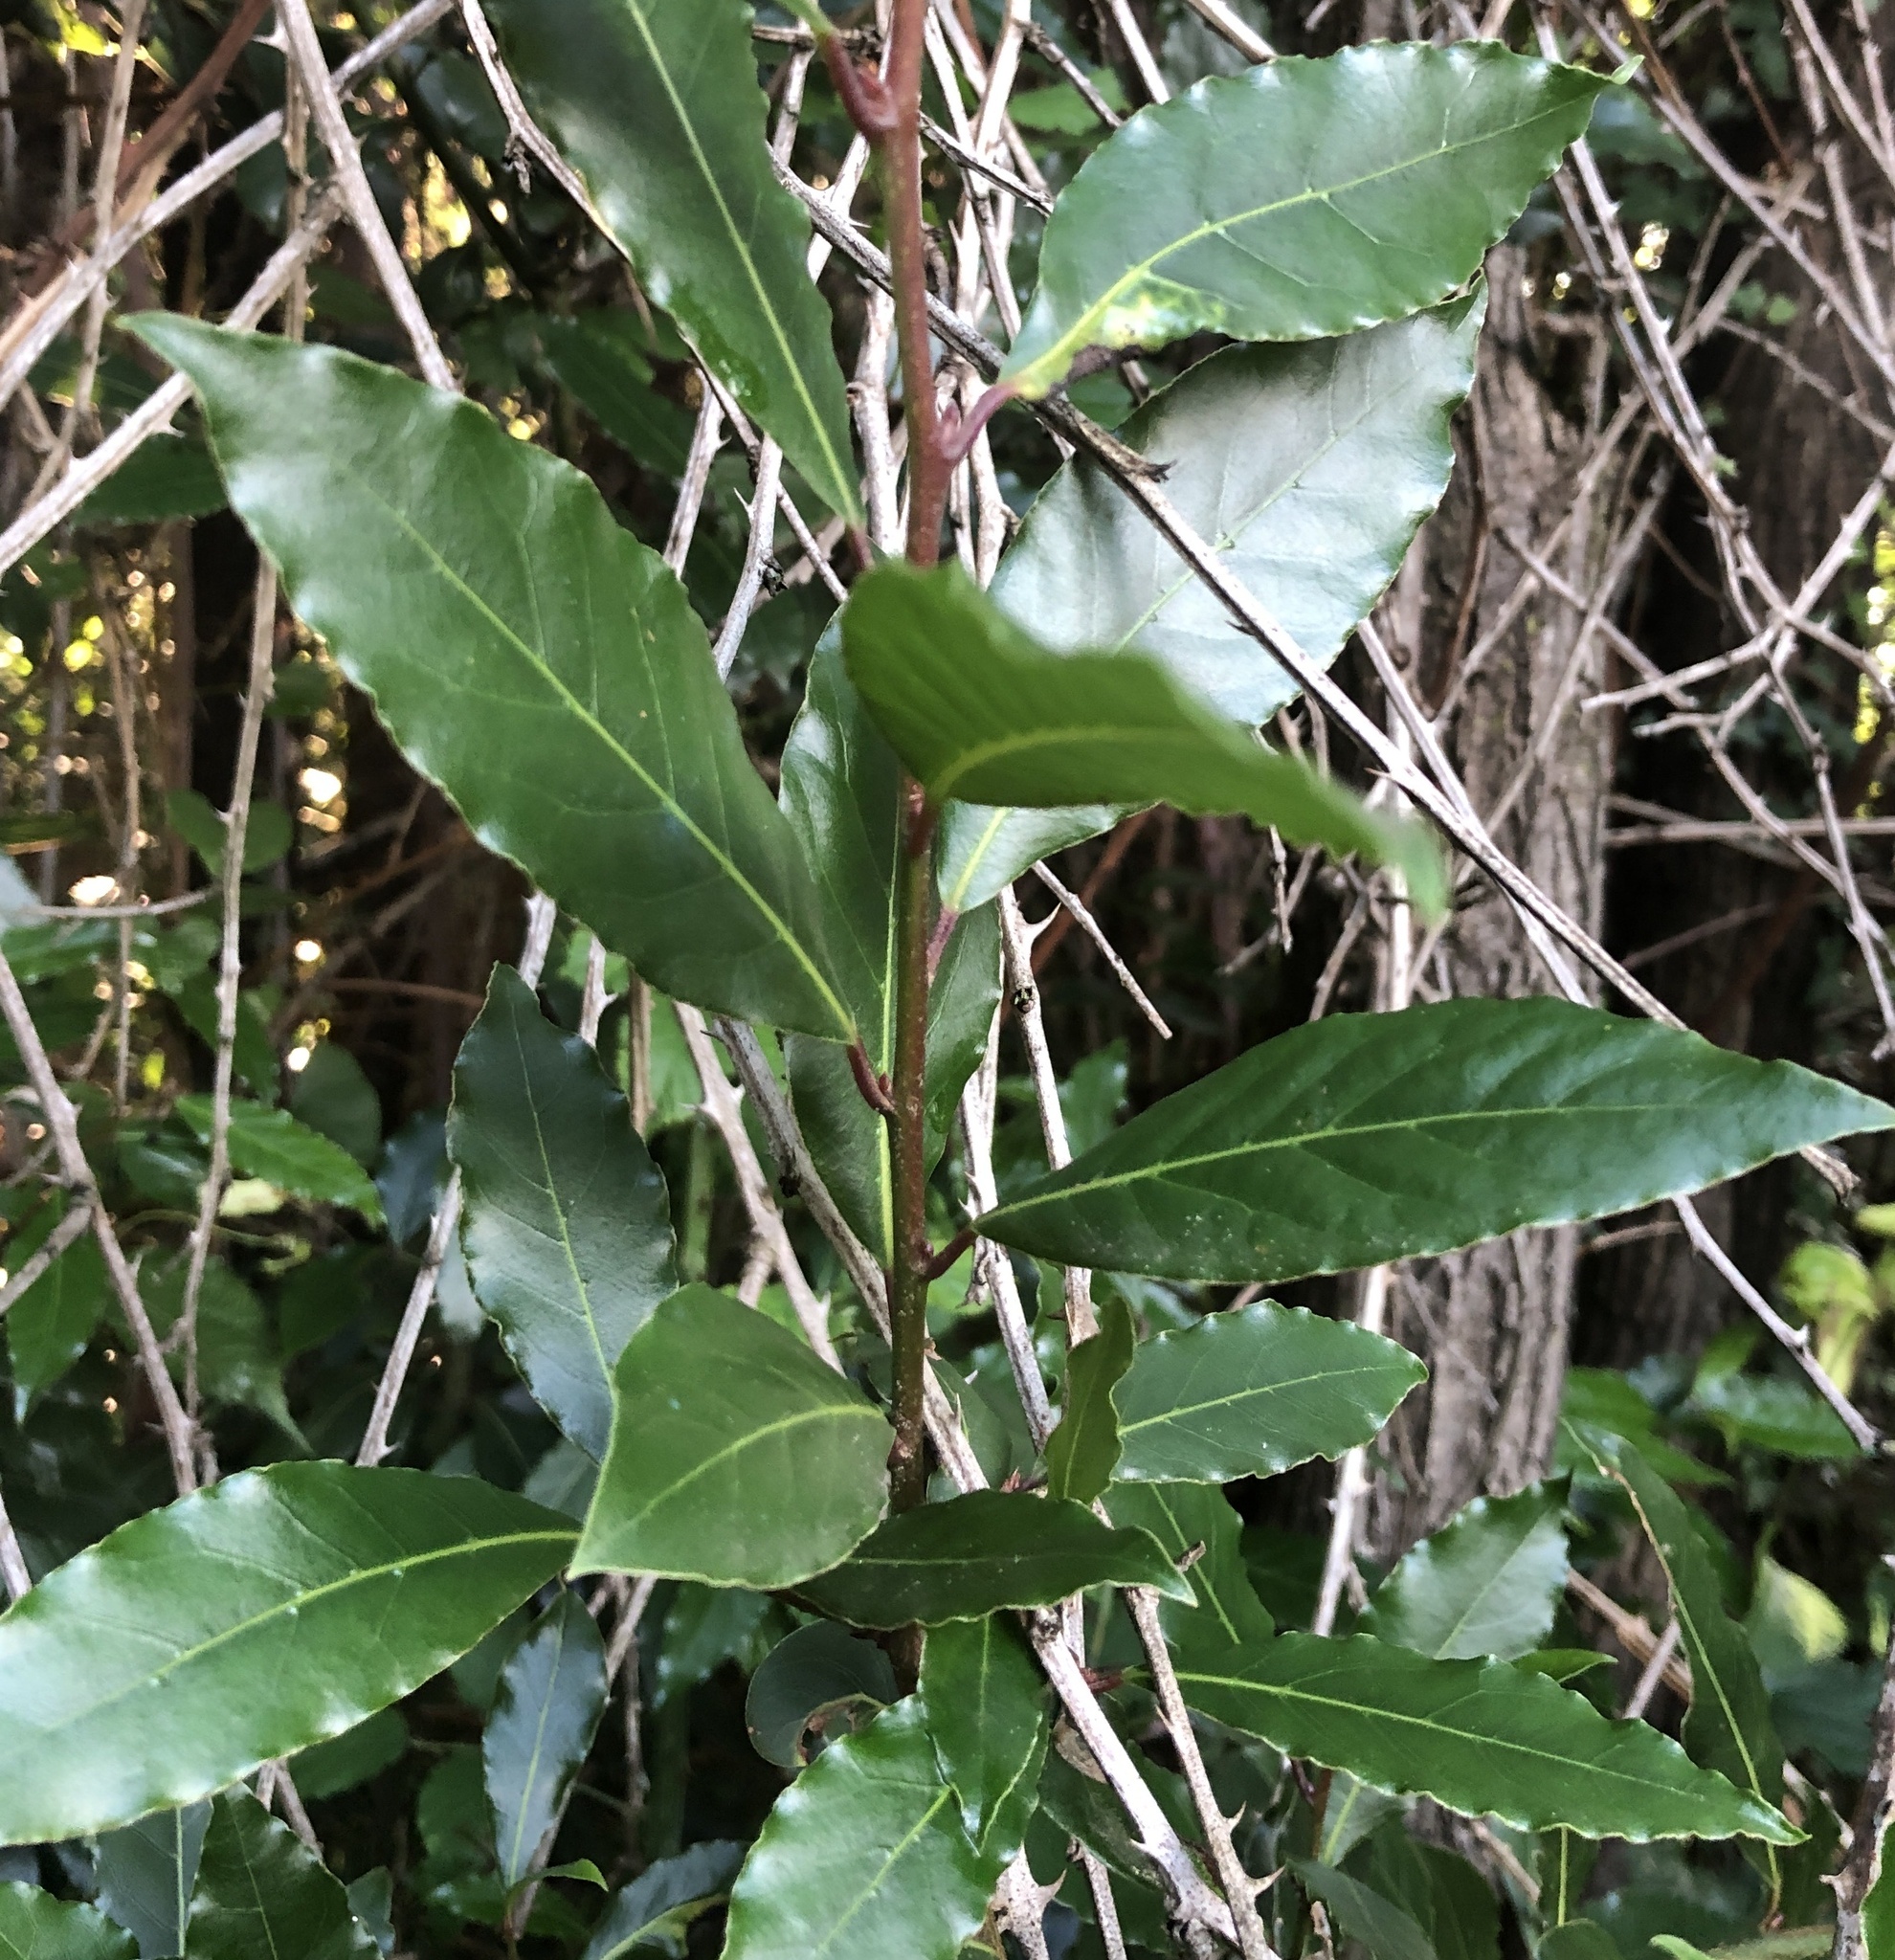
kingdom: Plantae
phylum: Tracheophyta
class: Magnoliopsida
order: Laurales
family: Lauraceae
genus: Laurus
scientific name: Laurus nobilis
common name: Bay
